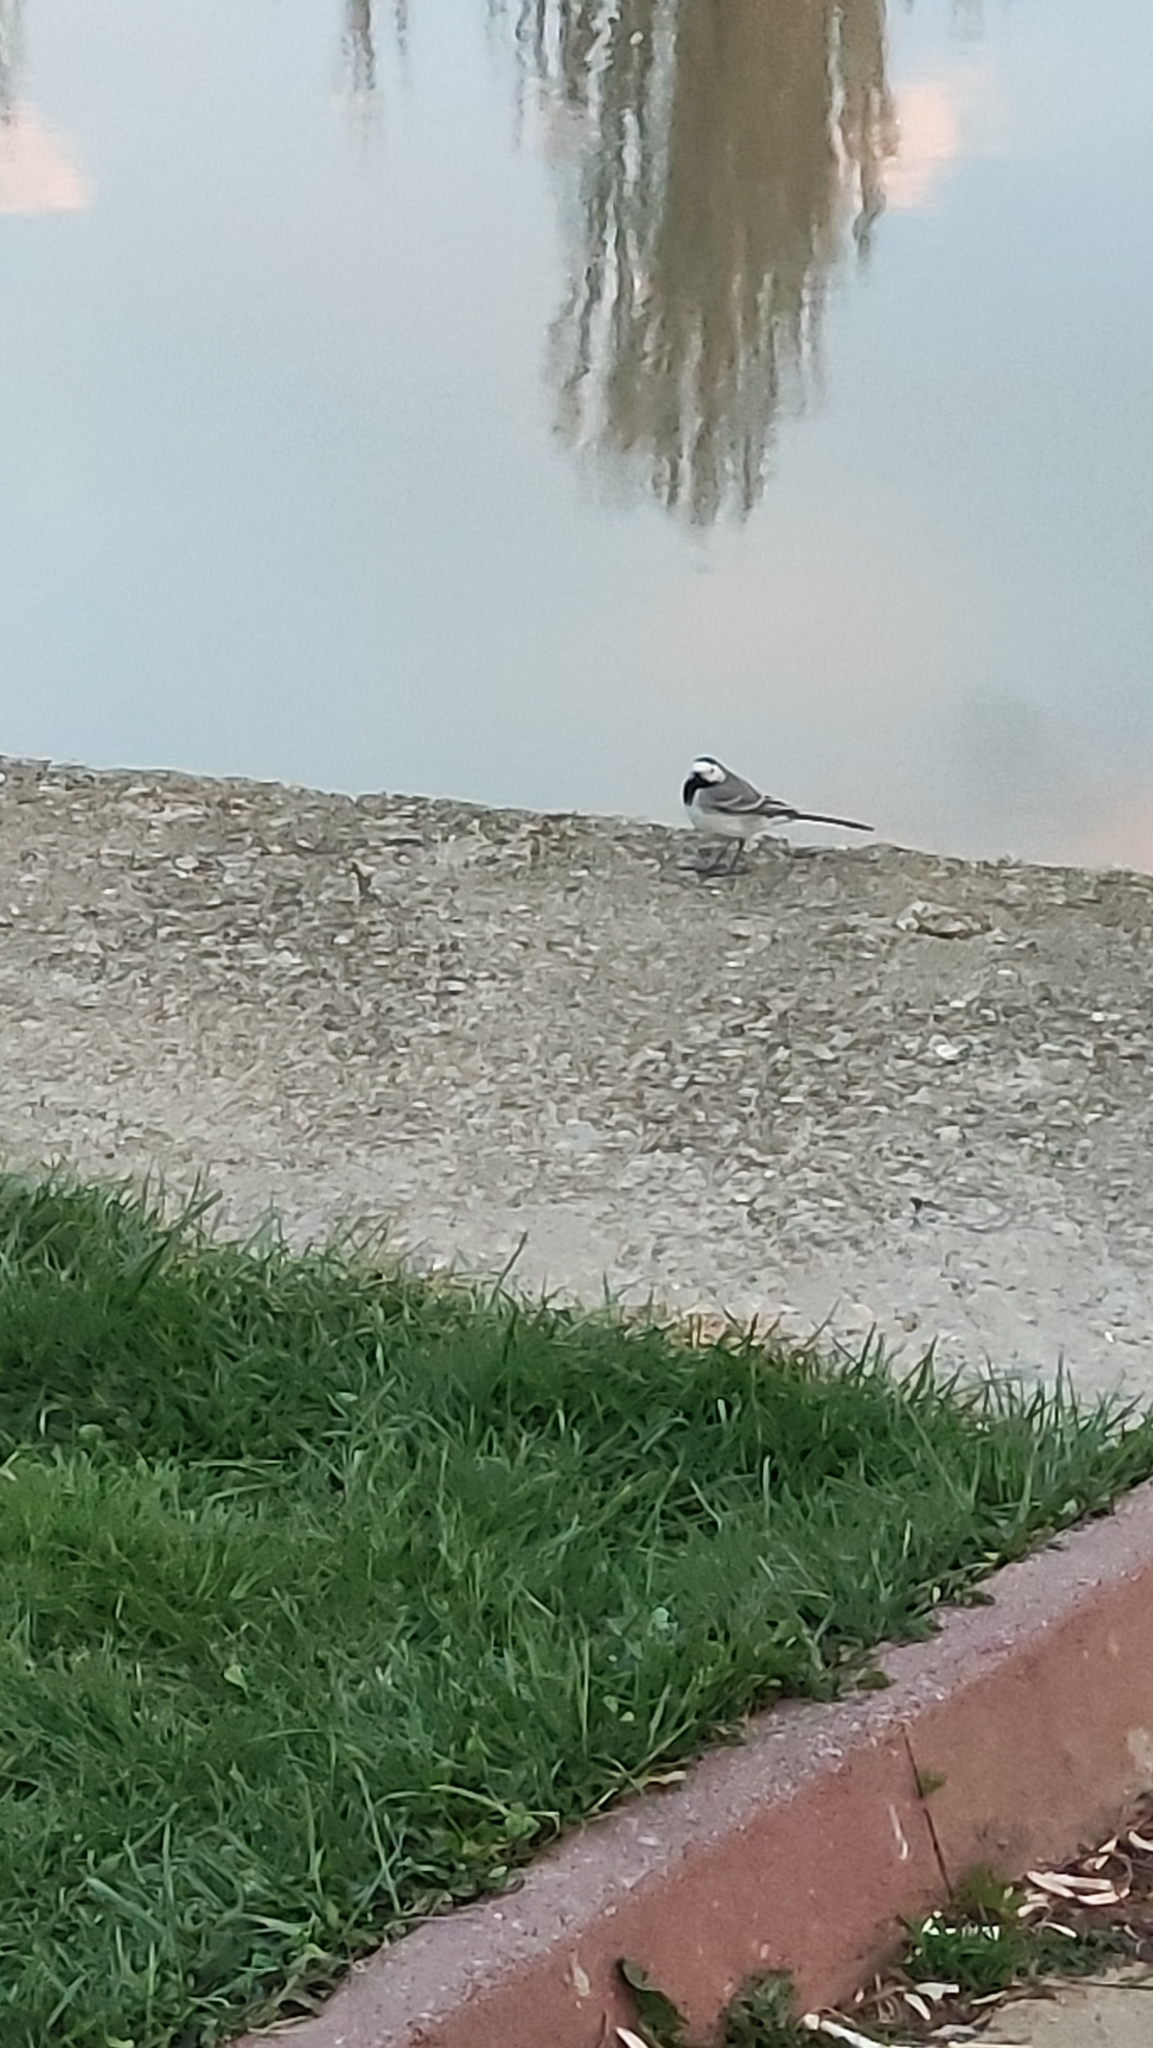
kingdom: Animalia
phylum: Chordata
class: Aves
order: Passeriformes
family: Motacillidae
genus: Motacilla
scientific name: Motacilla alba
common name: White wagtail
